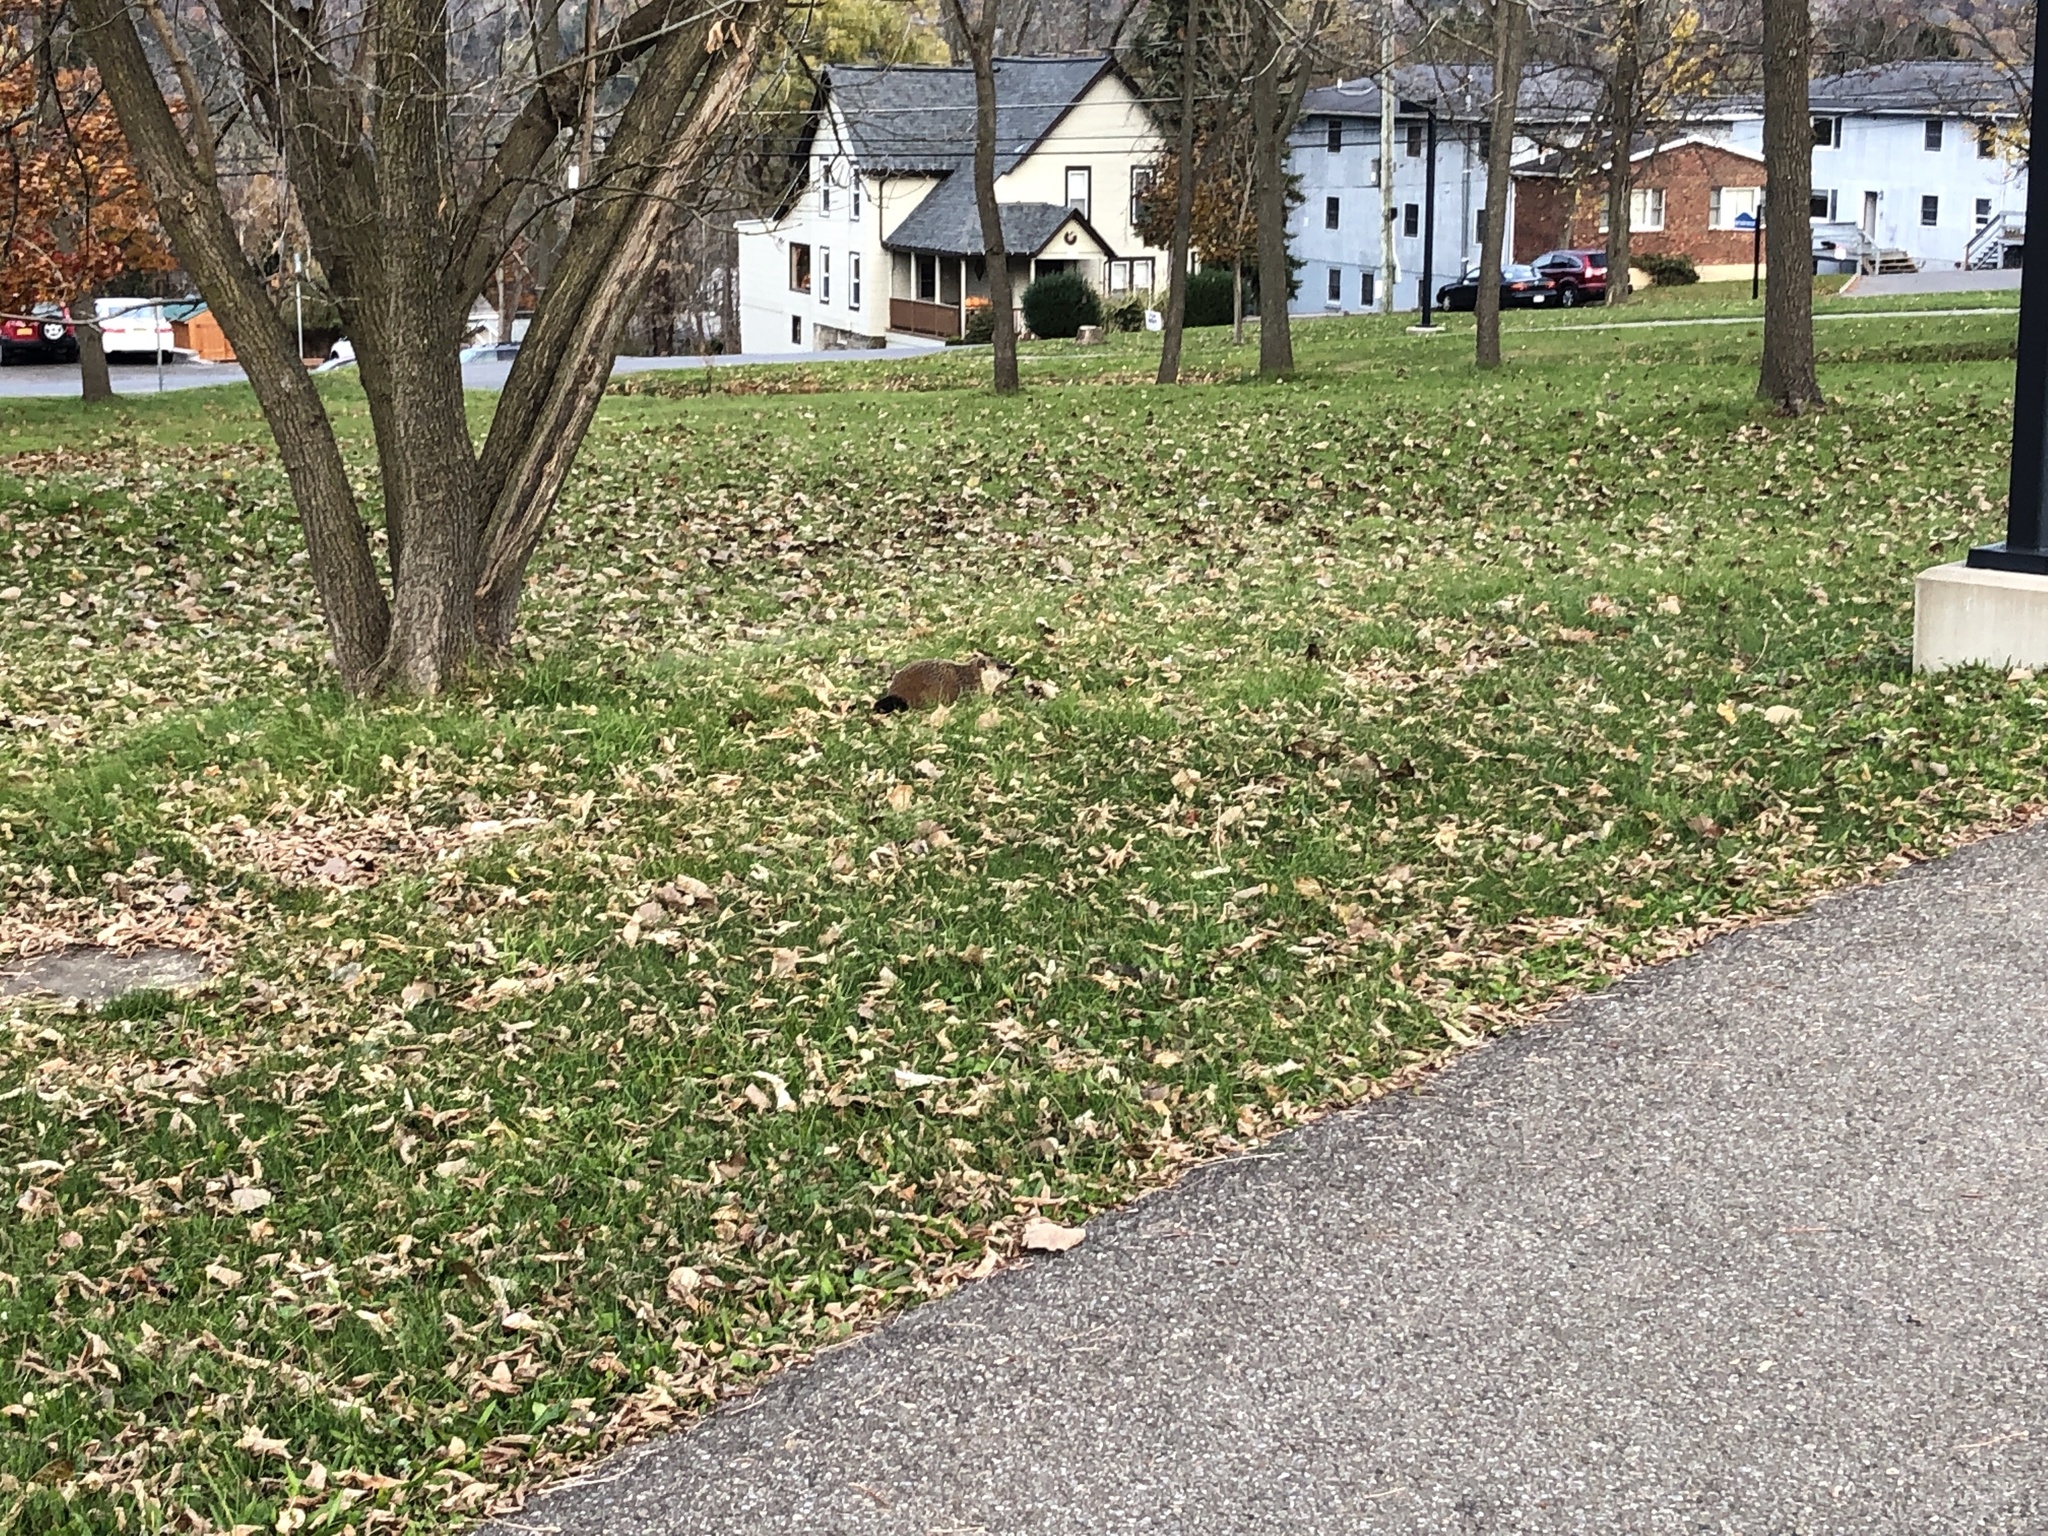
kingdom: Animalia
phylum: Chordata
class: Mammalia
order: Rodentia
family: Sciuridae
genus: Marmota
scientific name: Marmota monax
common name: Groundhog
